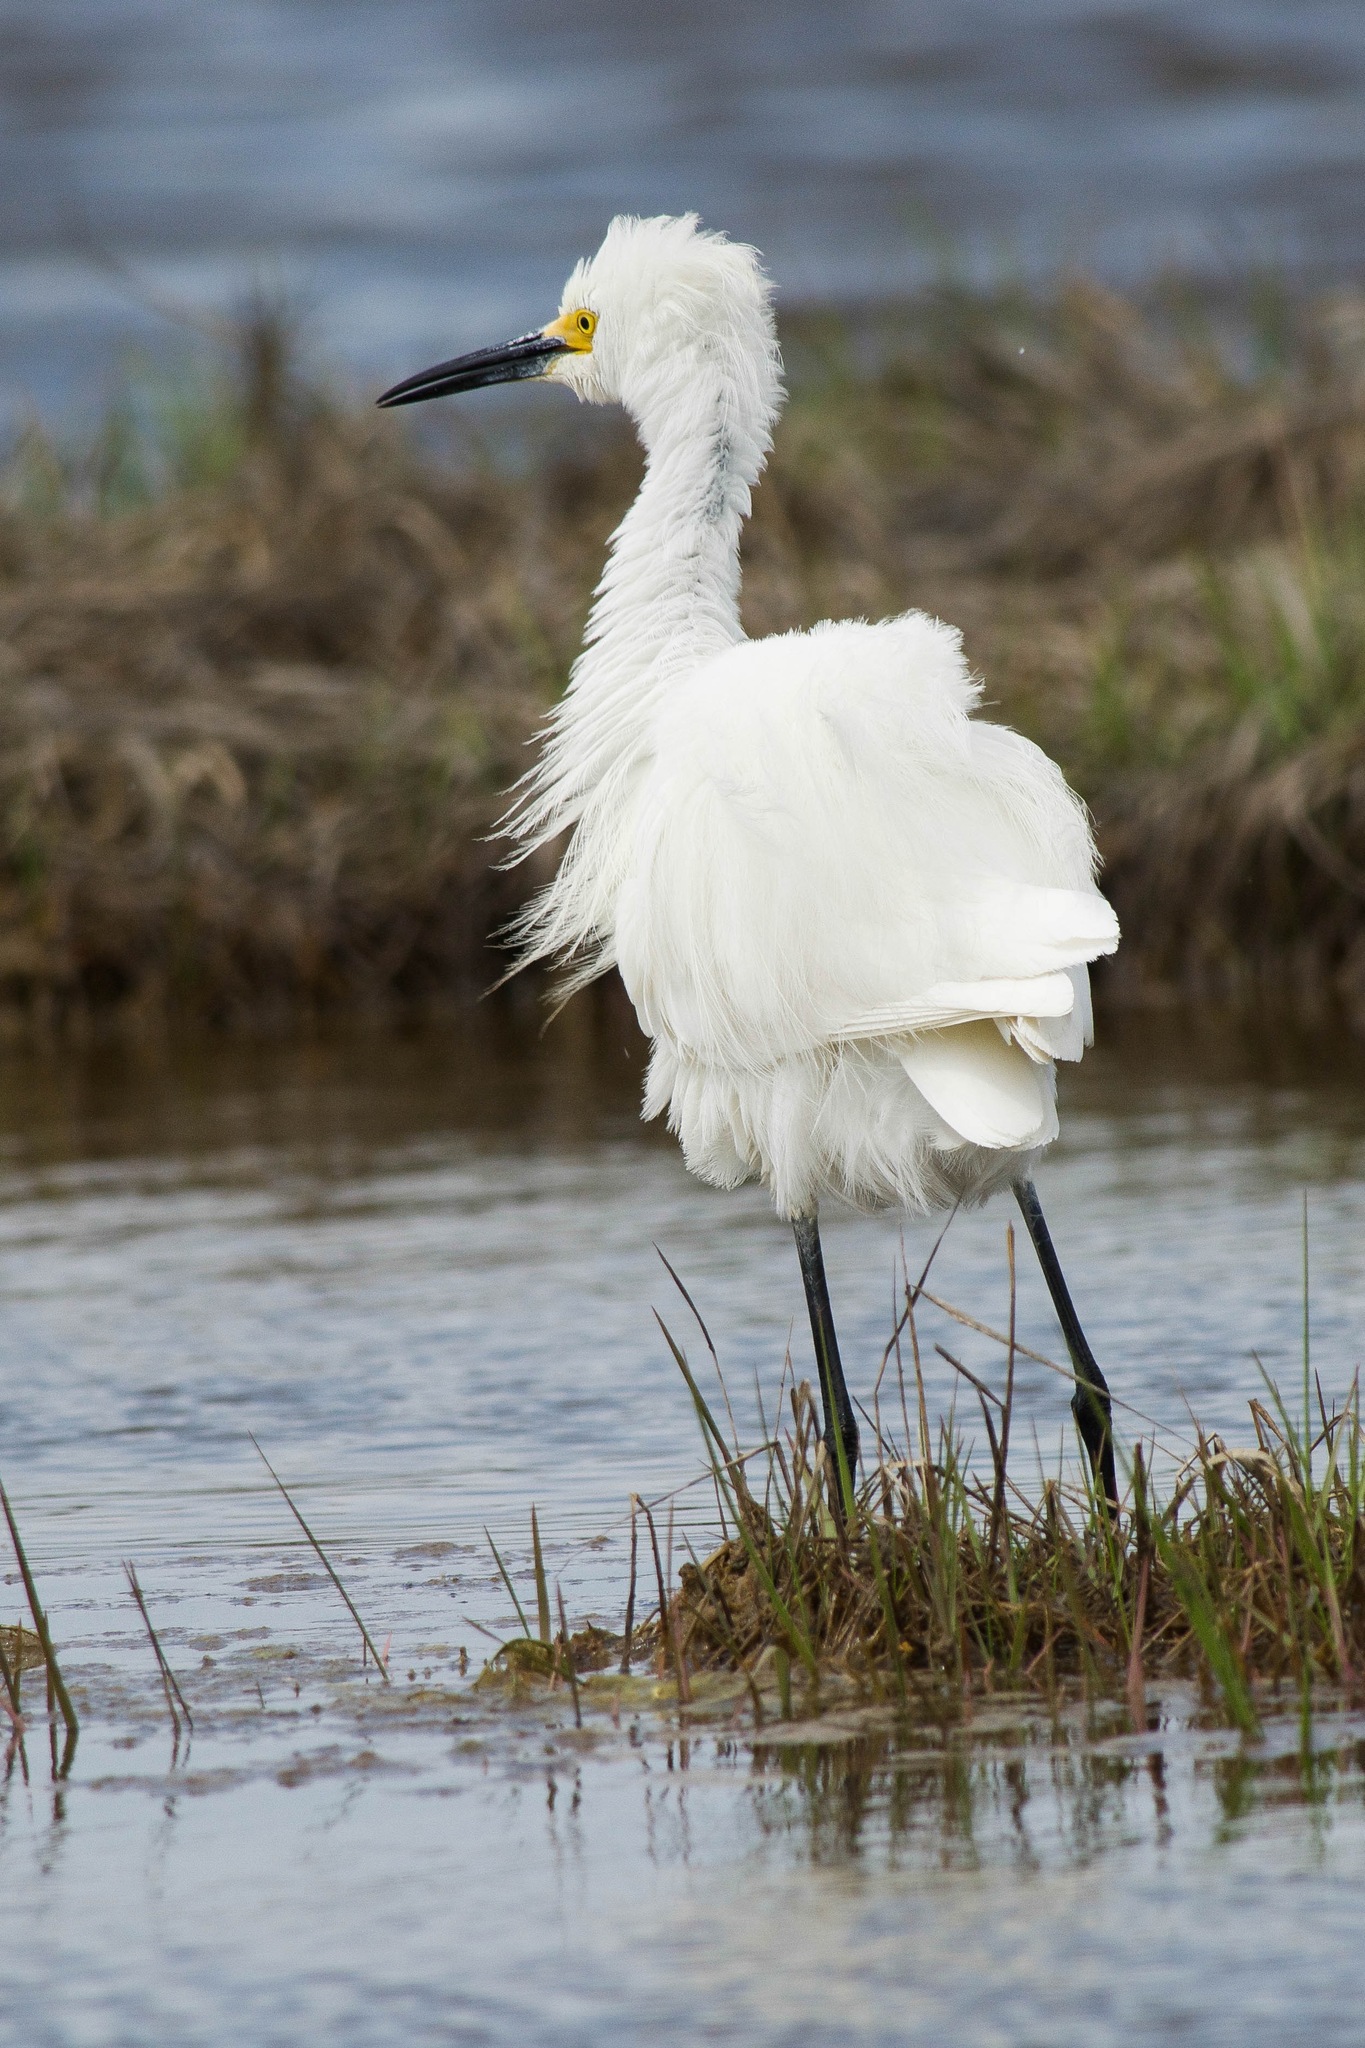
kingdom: Animalia
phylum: Chordata
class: Aves
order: Pelecaniformes
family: Ardeidae
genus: Egretta
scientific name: Egretta thula
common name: Snowy egret
